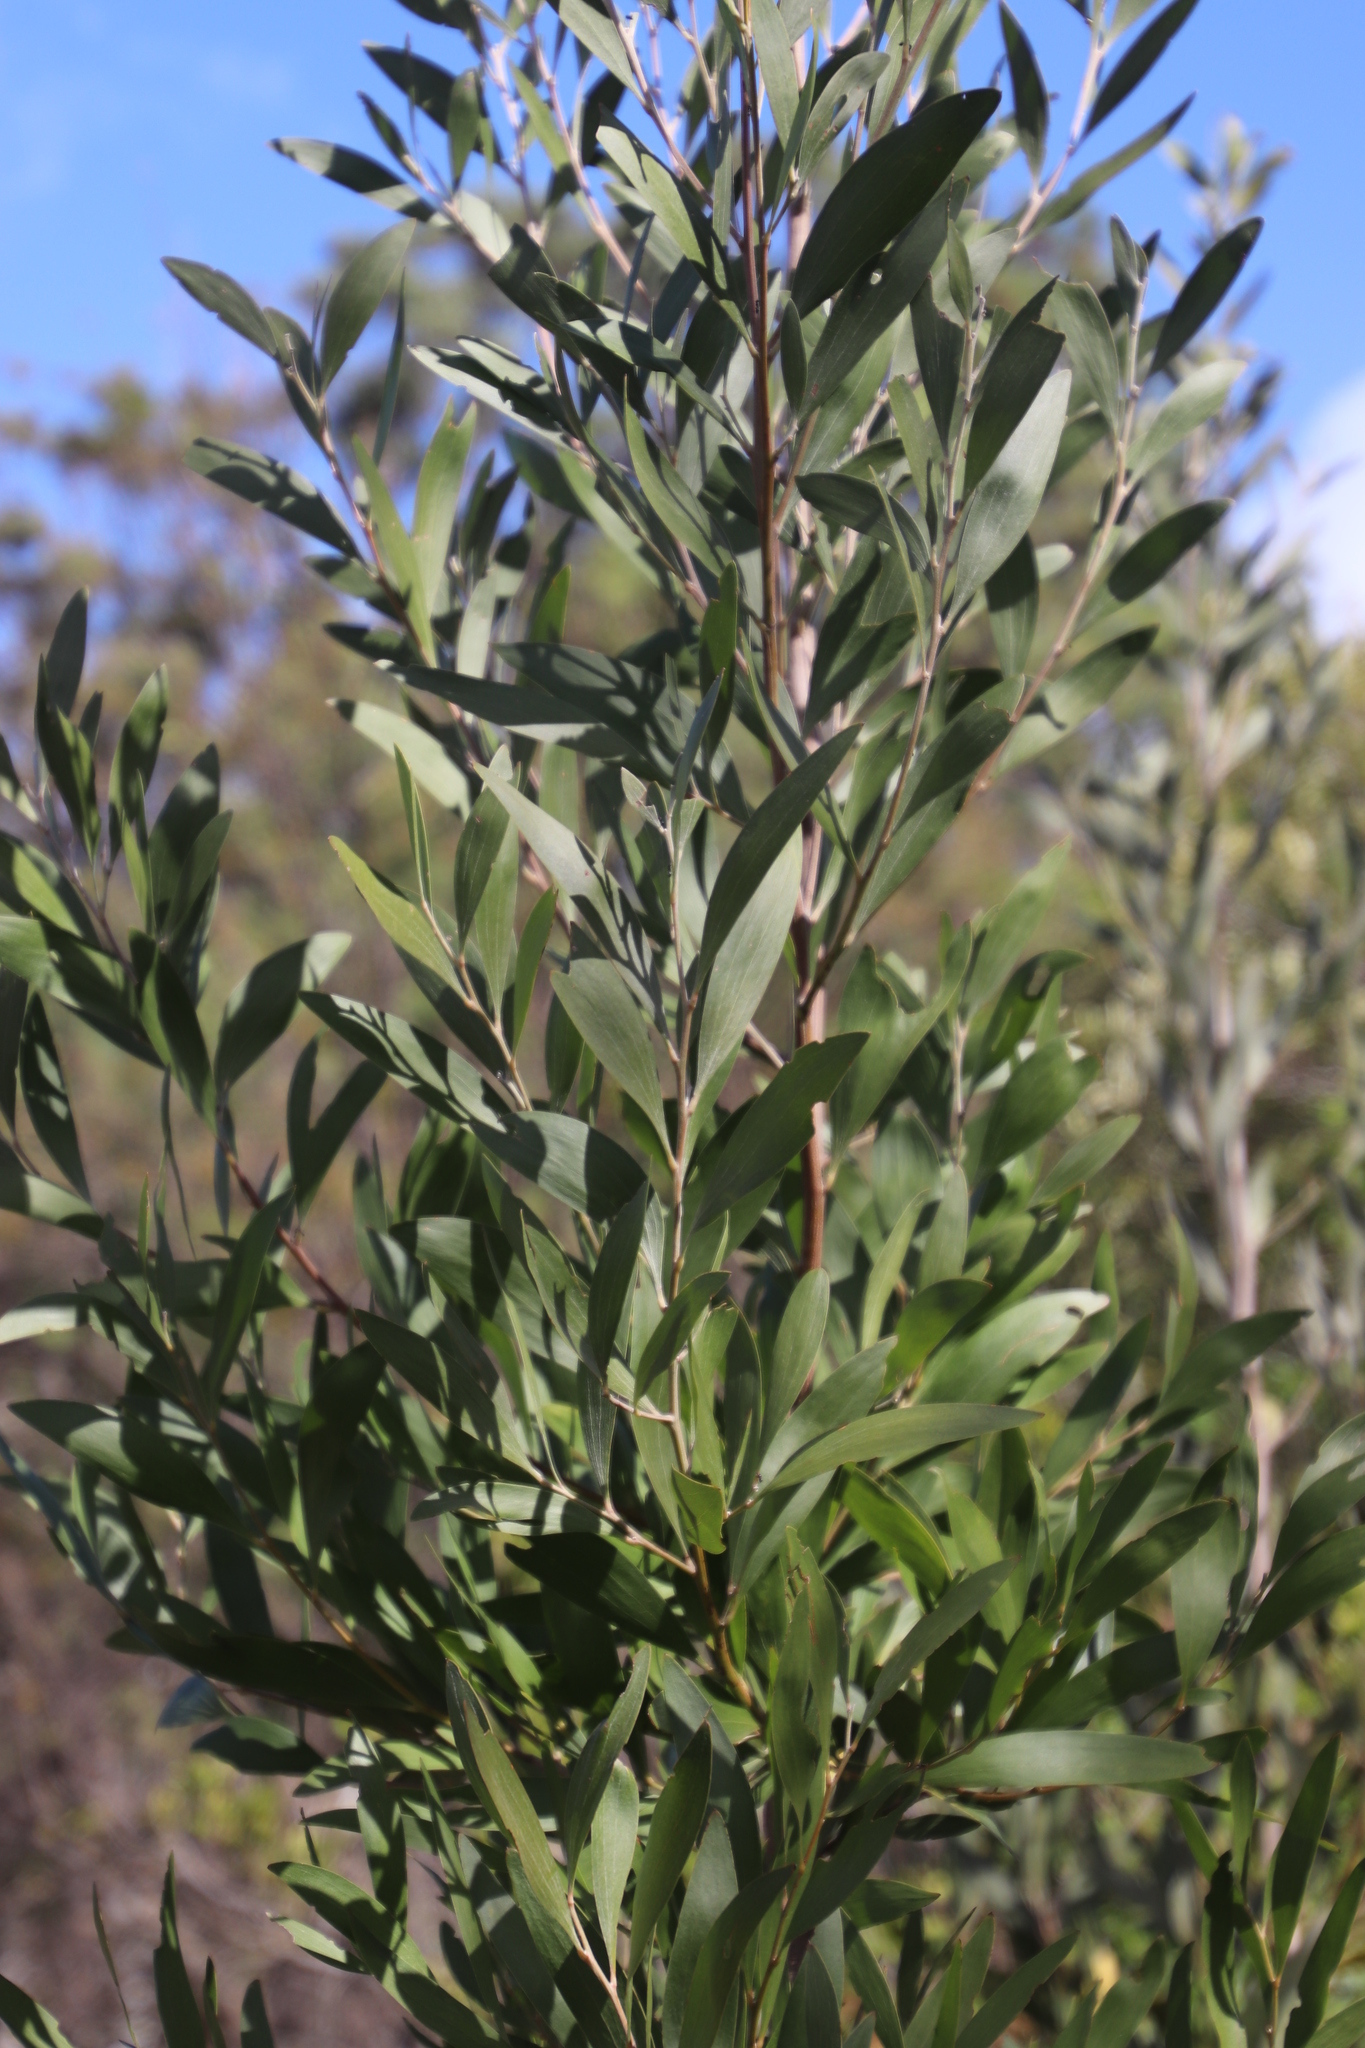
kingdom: Plantae
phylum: Tracheophyta
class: Magnoliopsida
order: Fabales
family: Fabaceae
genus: Acacia
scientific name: Acacia melanoxylon
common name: Blackwood
